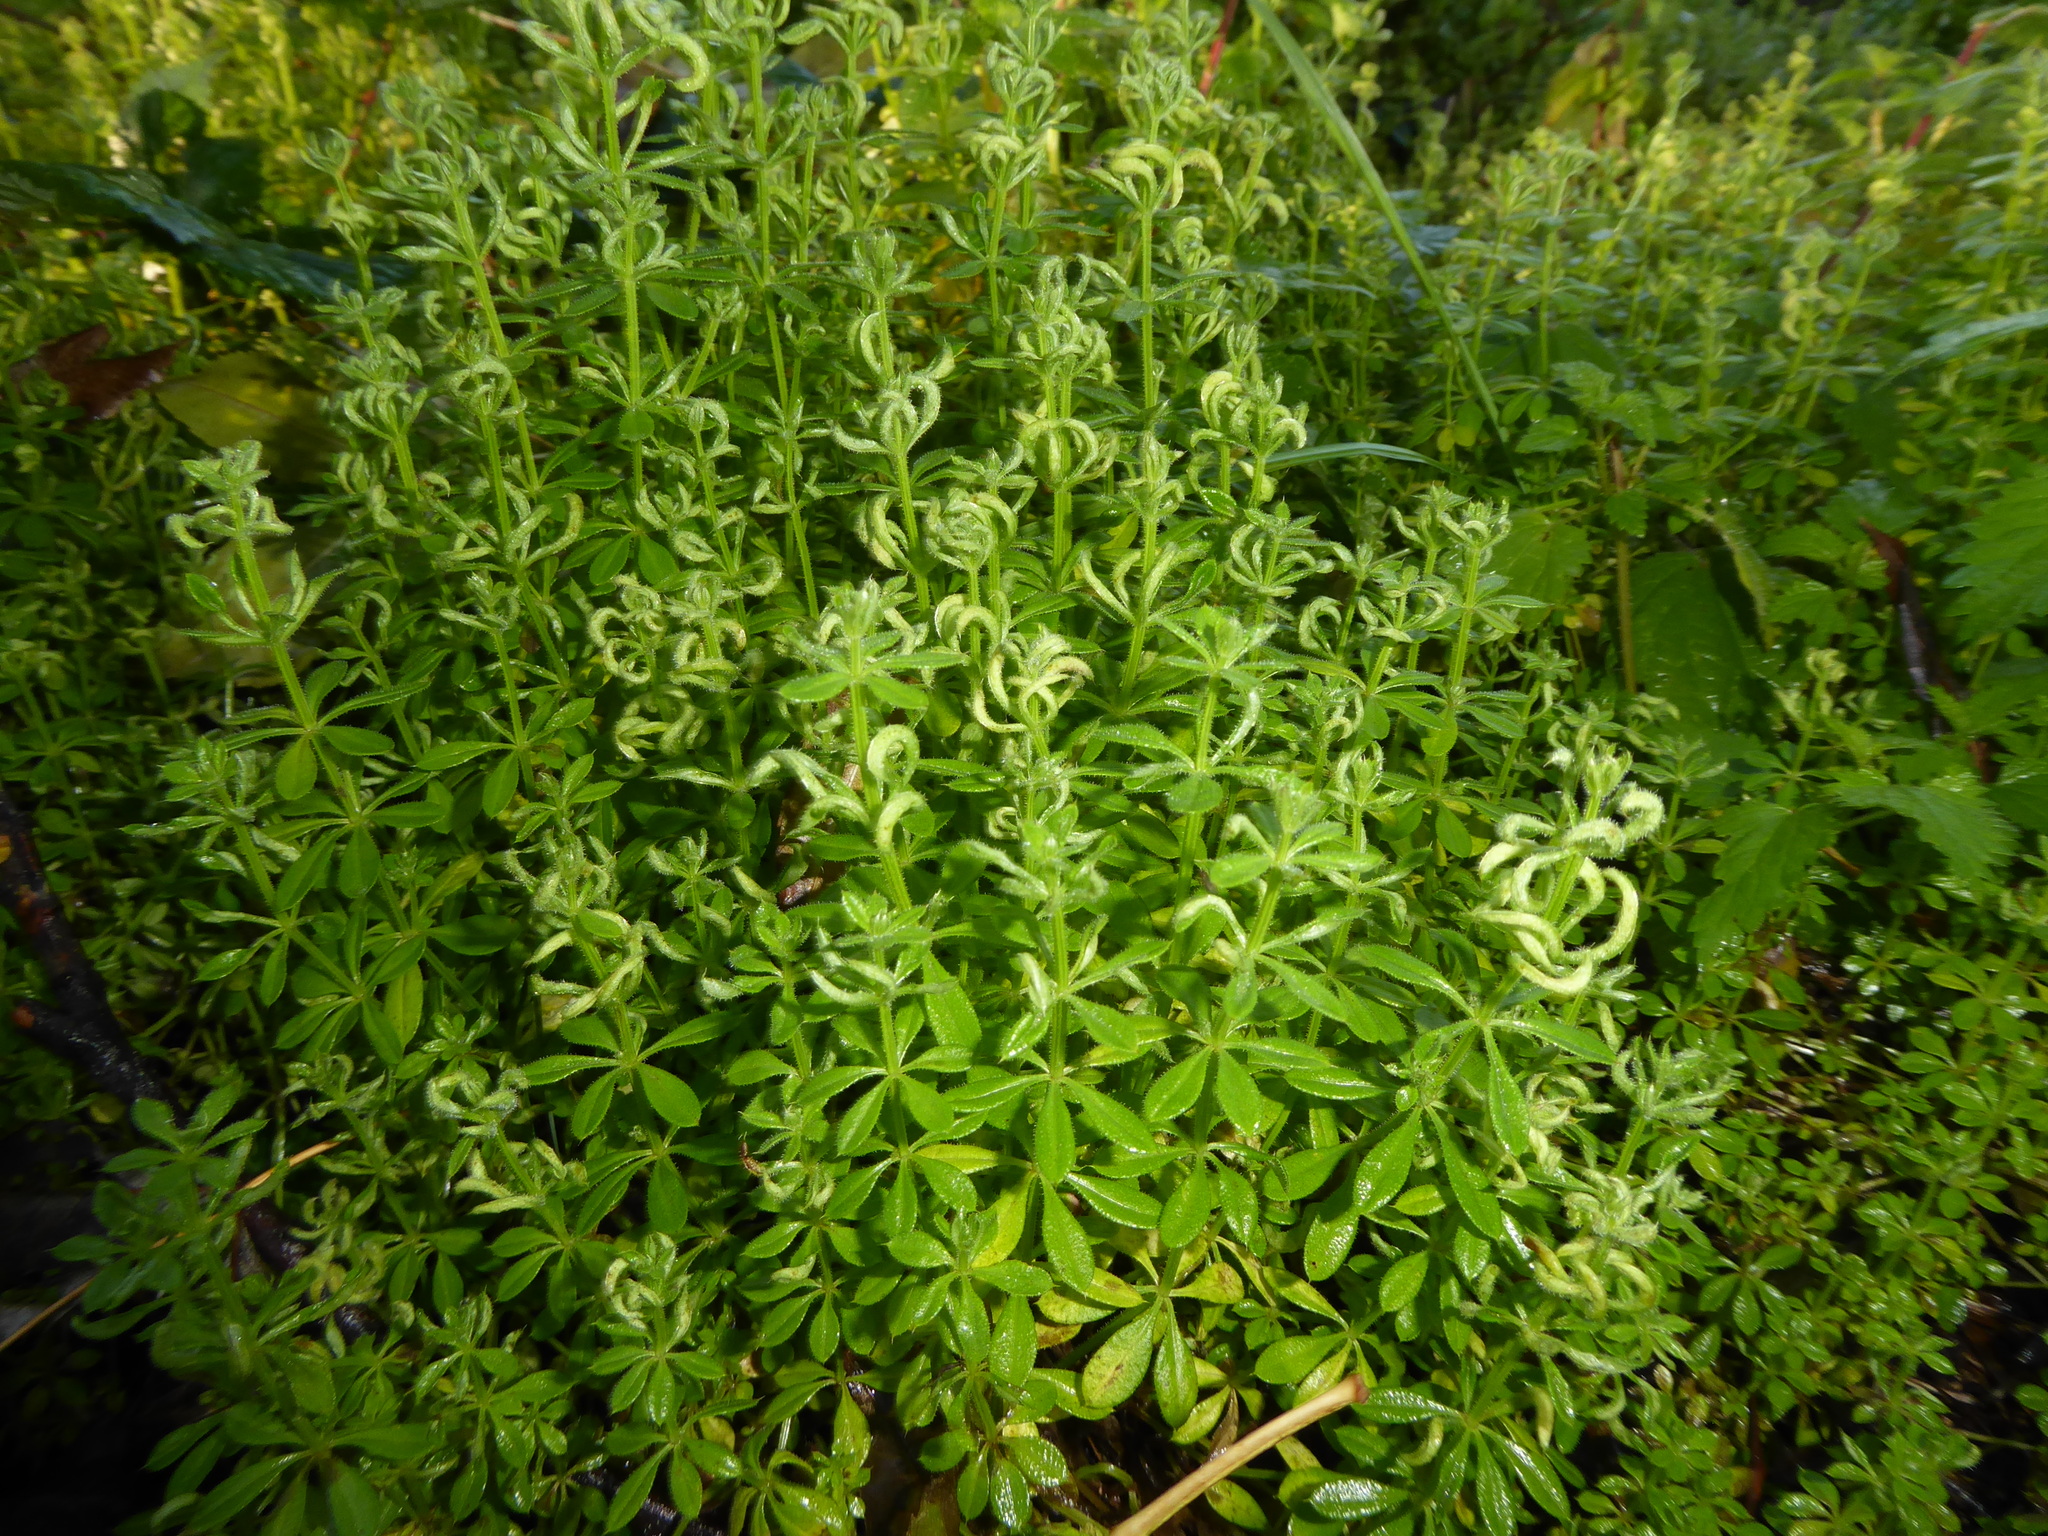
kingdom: Animalia
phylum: Arthropoda
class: Arachnida
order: Trombidiformes
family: Eriophyidae
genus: Cecidophyes
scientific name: Cecidophyes rouhollahi
